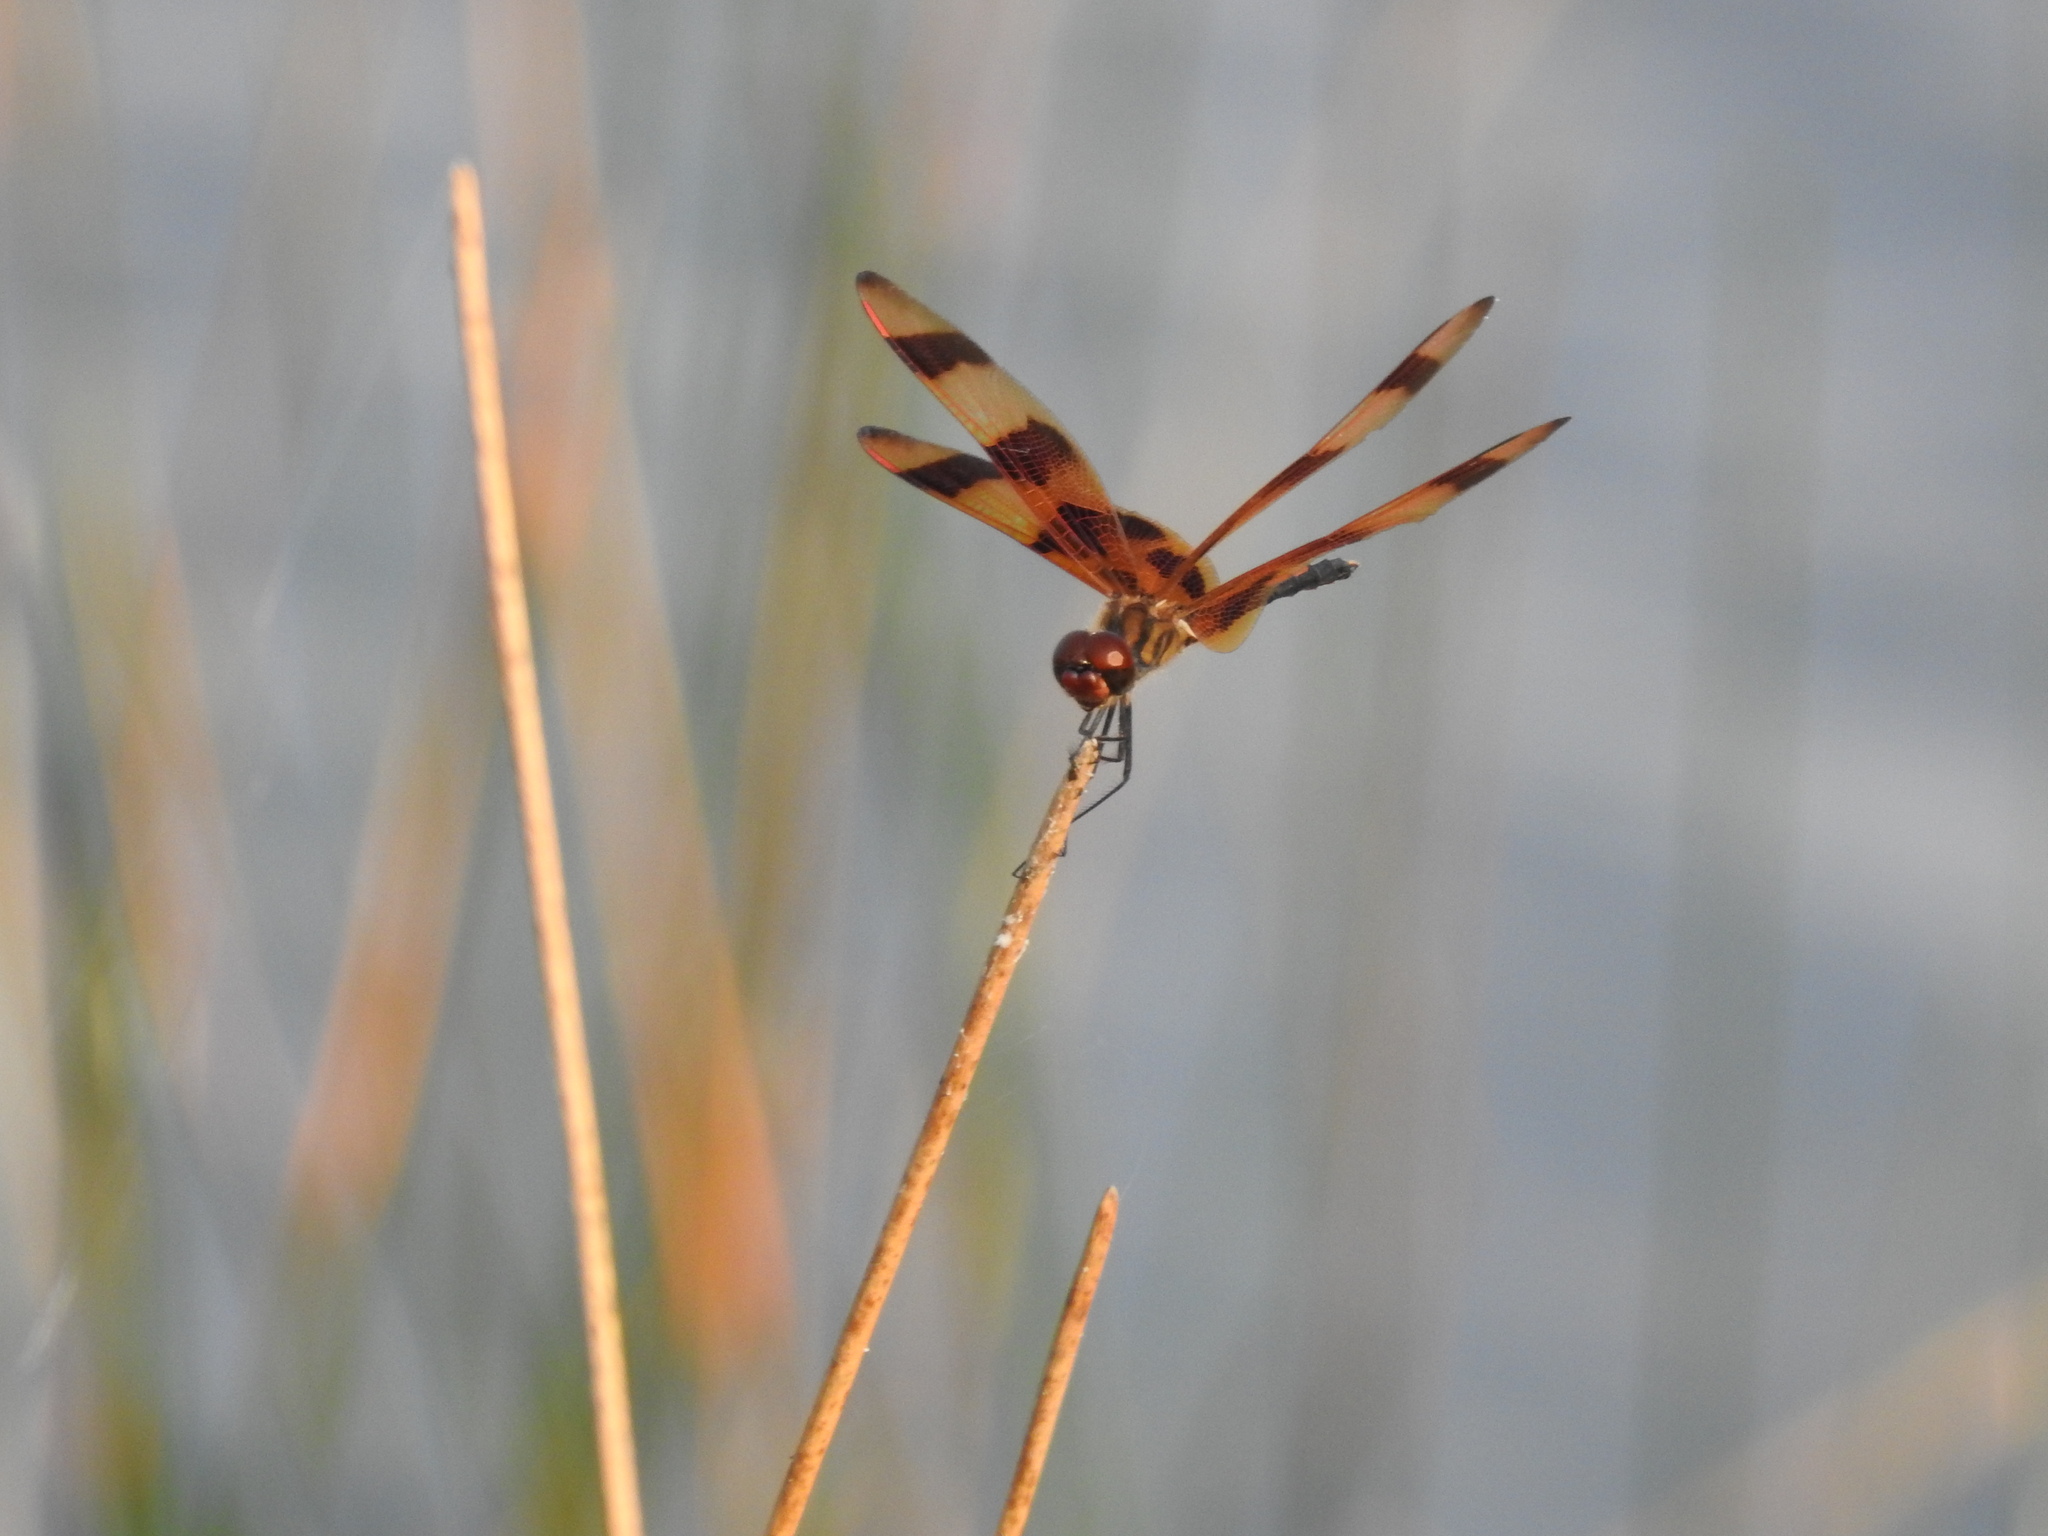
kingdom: Animalia
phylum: Arthropoda
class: Insecta
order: Odonata
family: Libellulidae
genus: Celithemis
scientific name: Celithemis eponina
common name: Halloween pennant
